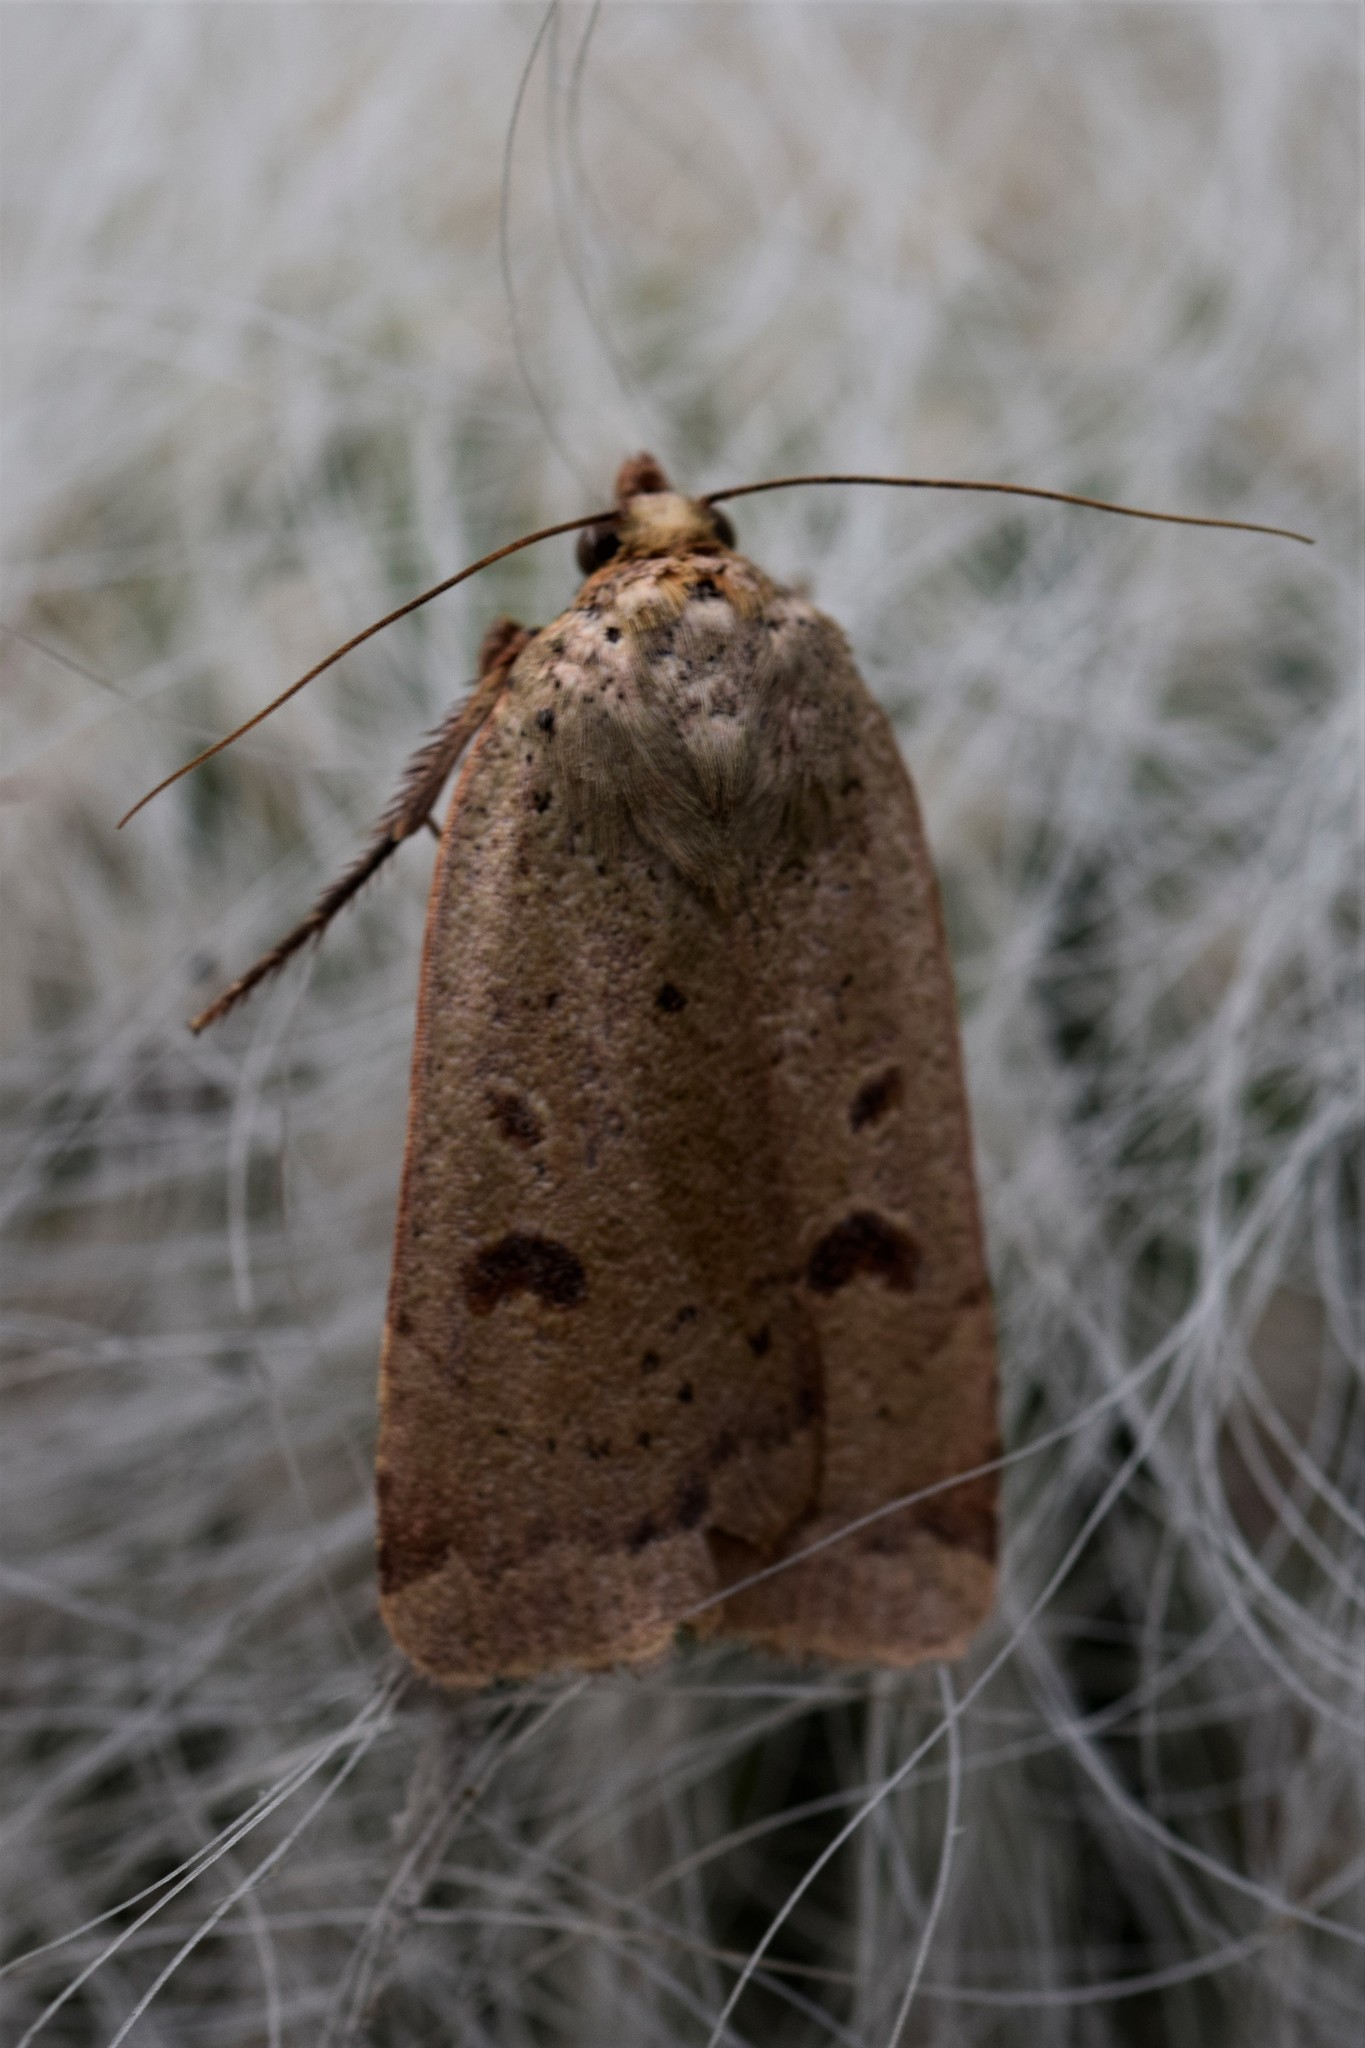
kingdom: Animalia
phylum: Arthropoda
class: Insecta
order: Lepidoptera
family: Noctuidae
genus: Noctua
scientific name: Noctua comes
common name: Lesser yellow underwing
